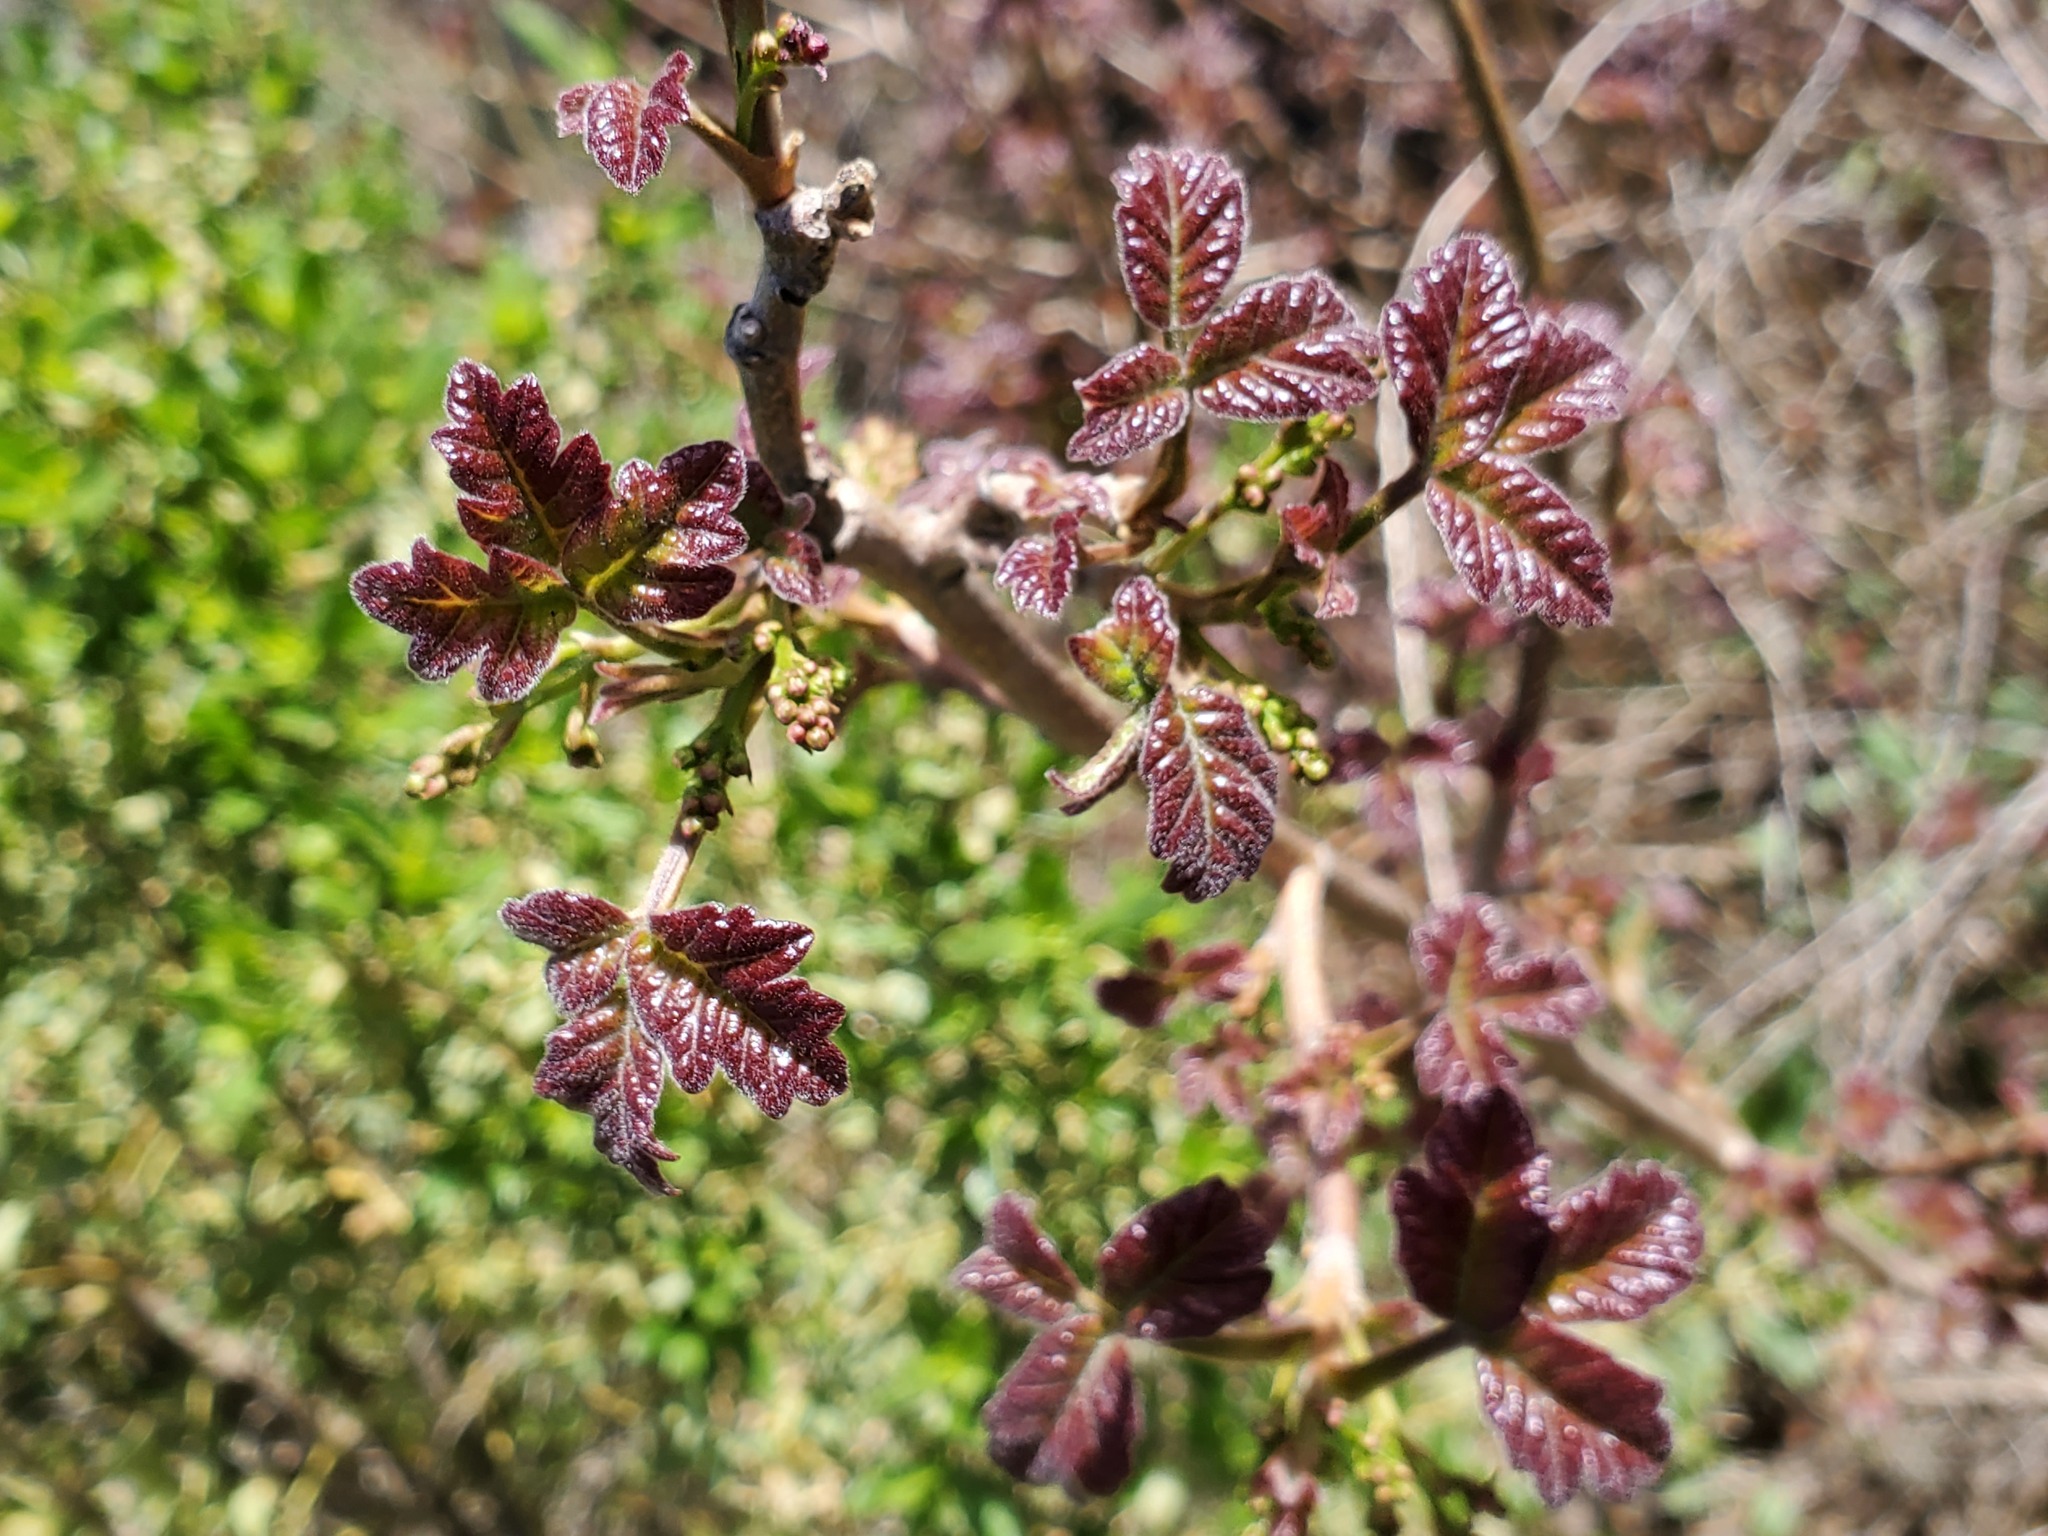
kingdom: Plantae
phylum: Tracheophyta
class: Magnoliopsida
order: Sapindales
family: Anacardiaceae
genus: Toxicodendron
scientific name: Toxicodendron diversilobum
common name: Pacific poison-oak
